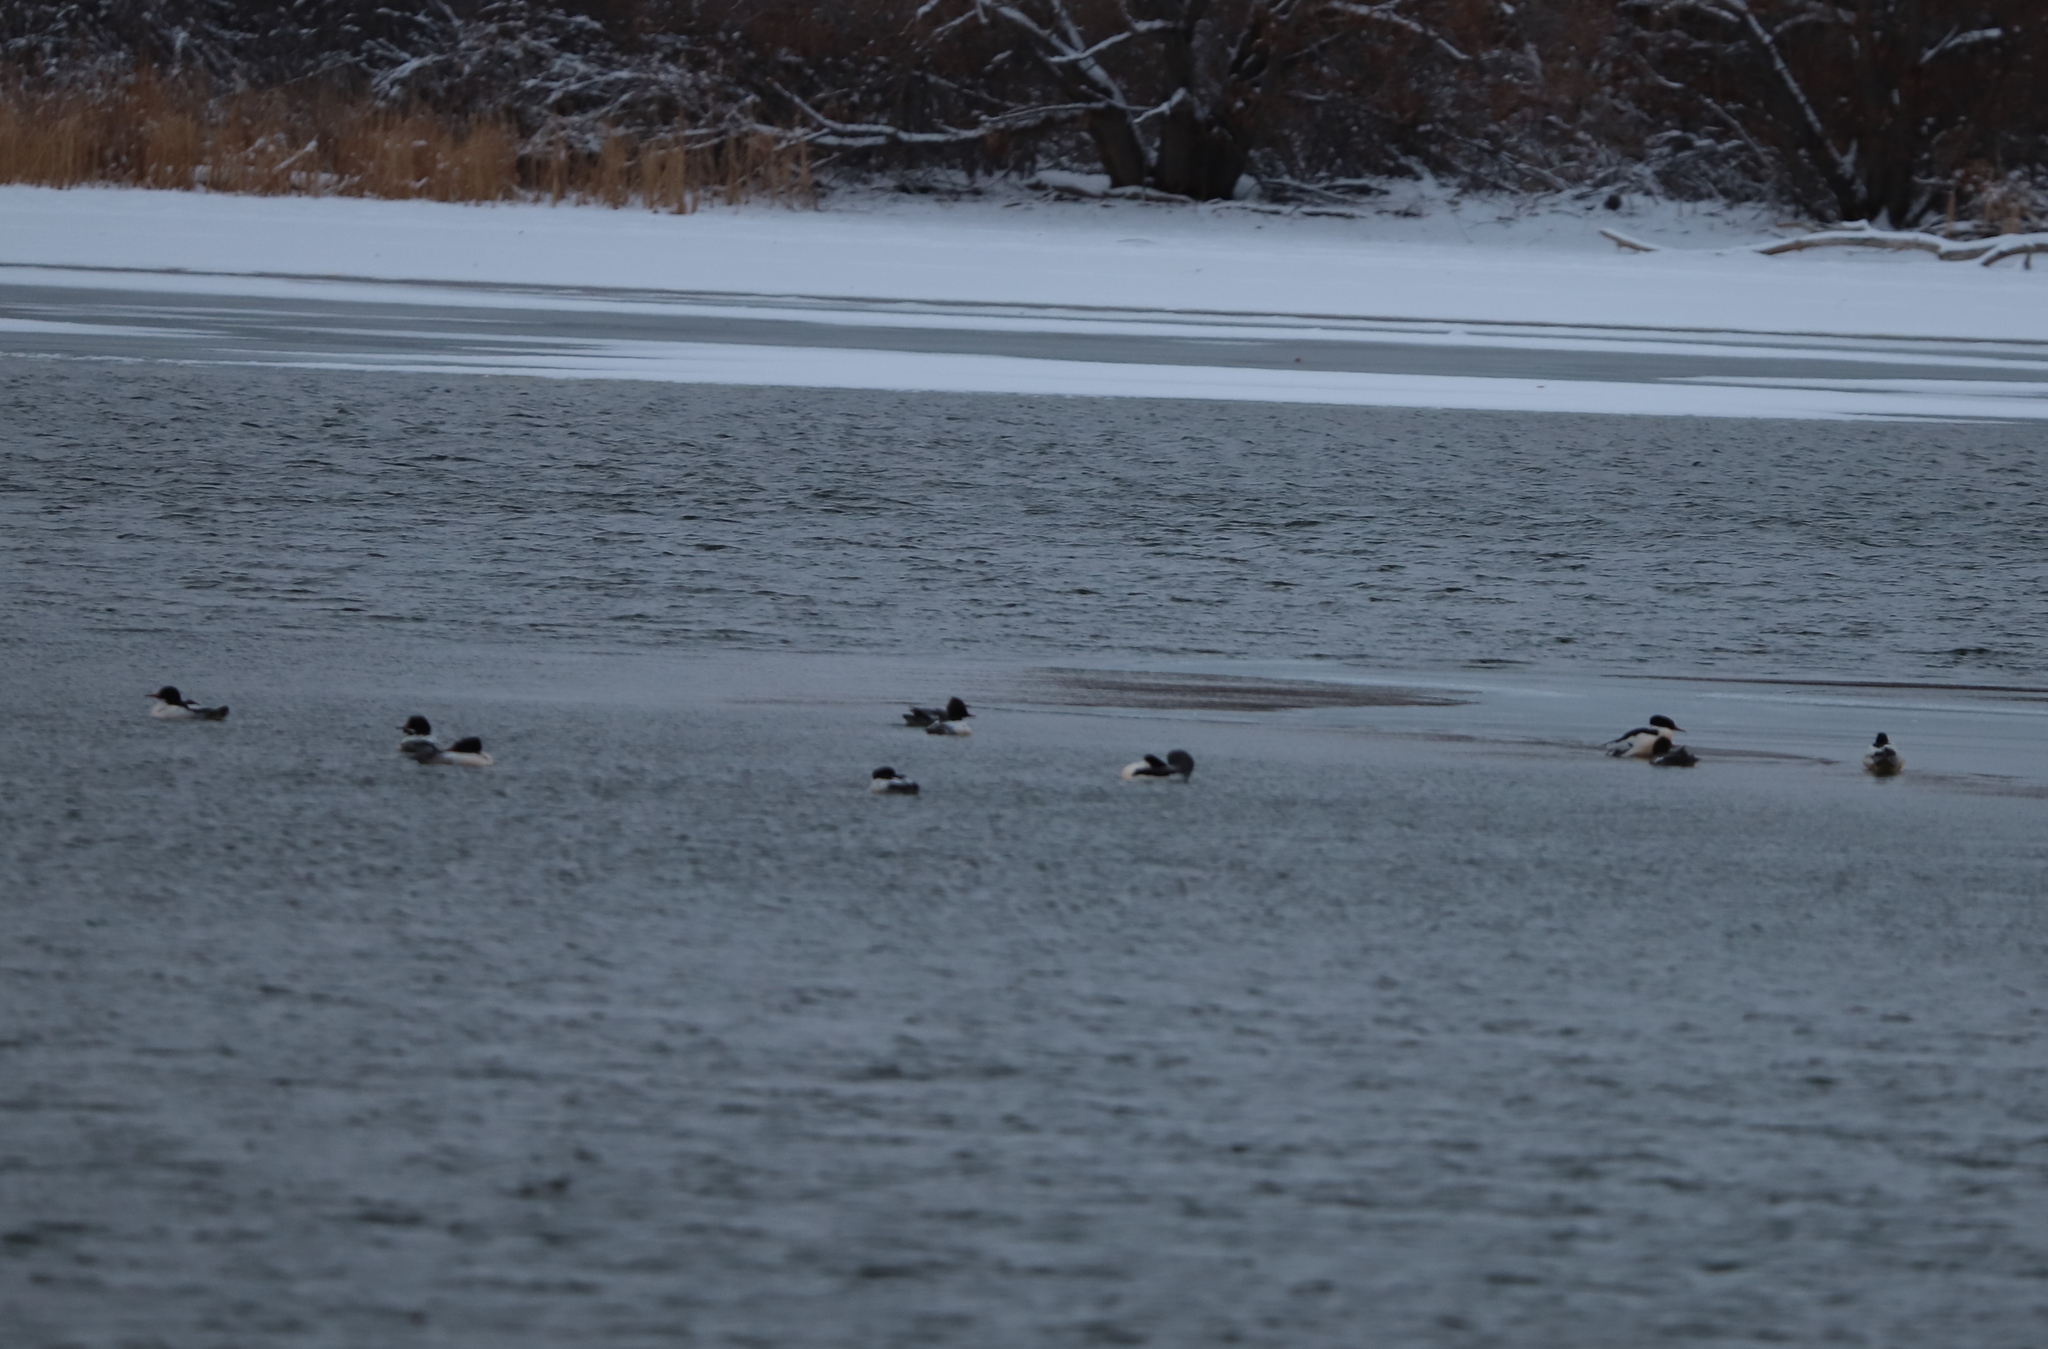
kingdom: Animalia
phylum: Chordata
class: Aves
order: Anseriformes
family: Anatidae
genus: Mergus
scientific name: Mergus merganser
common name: Common merganser
